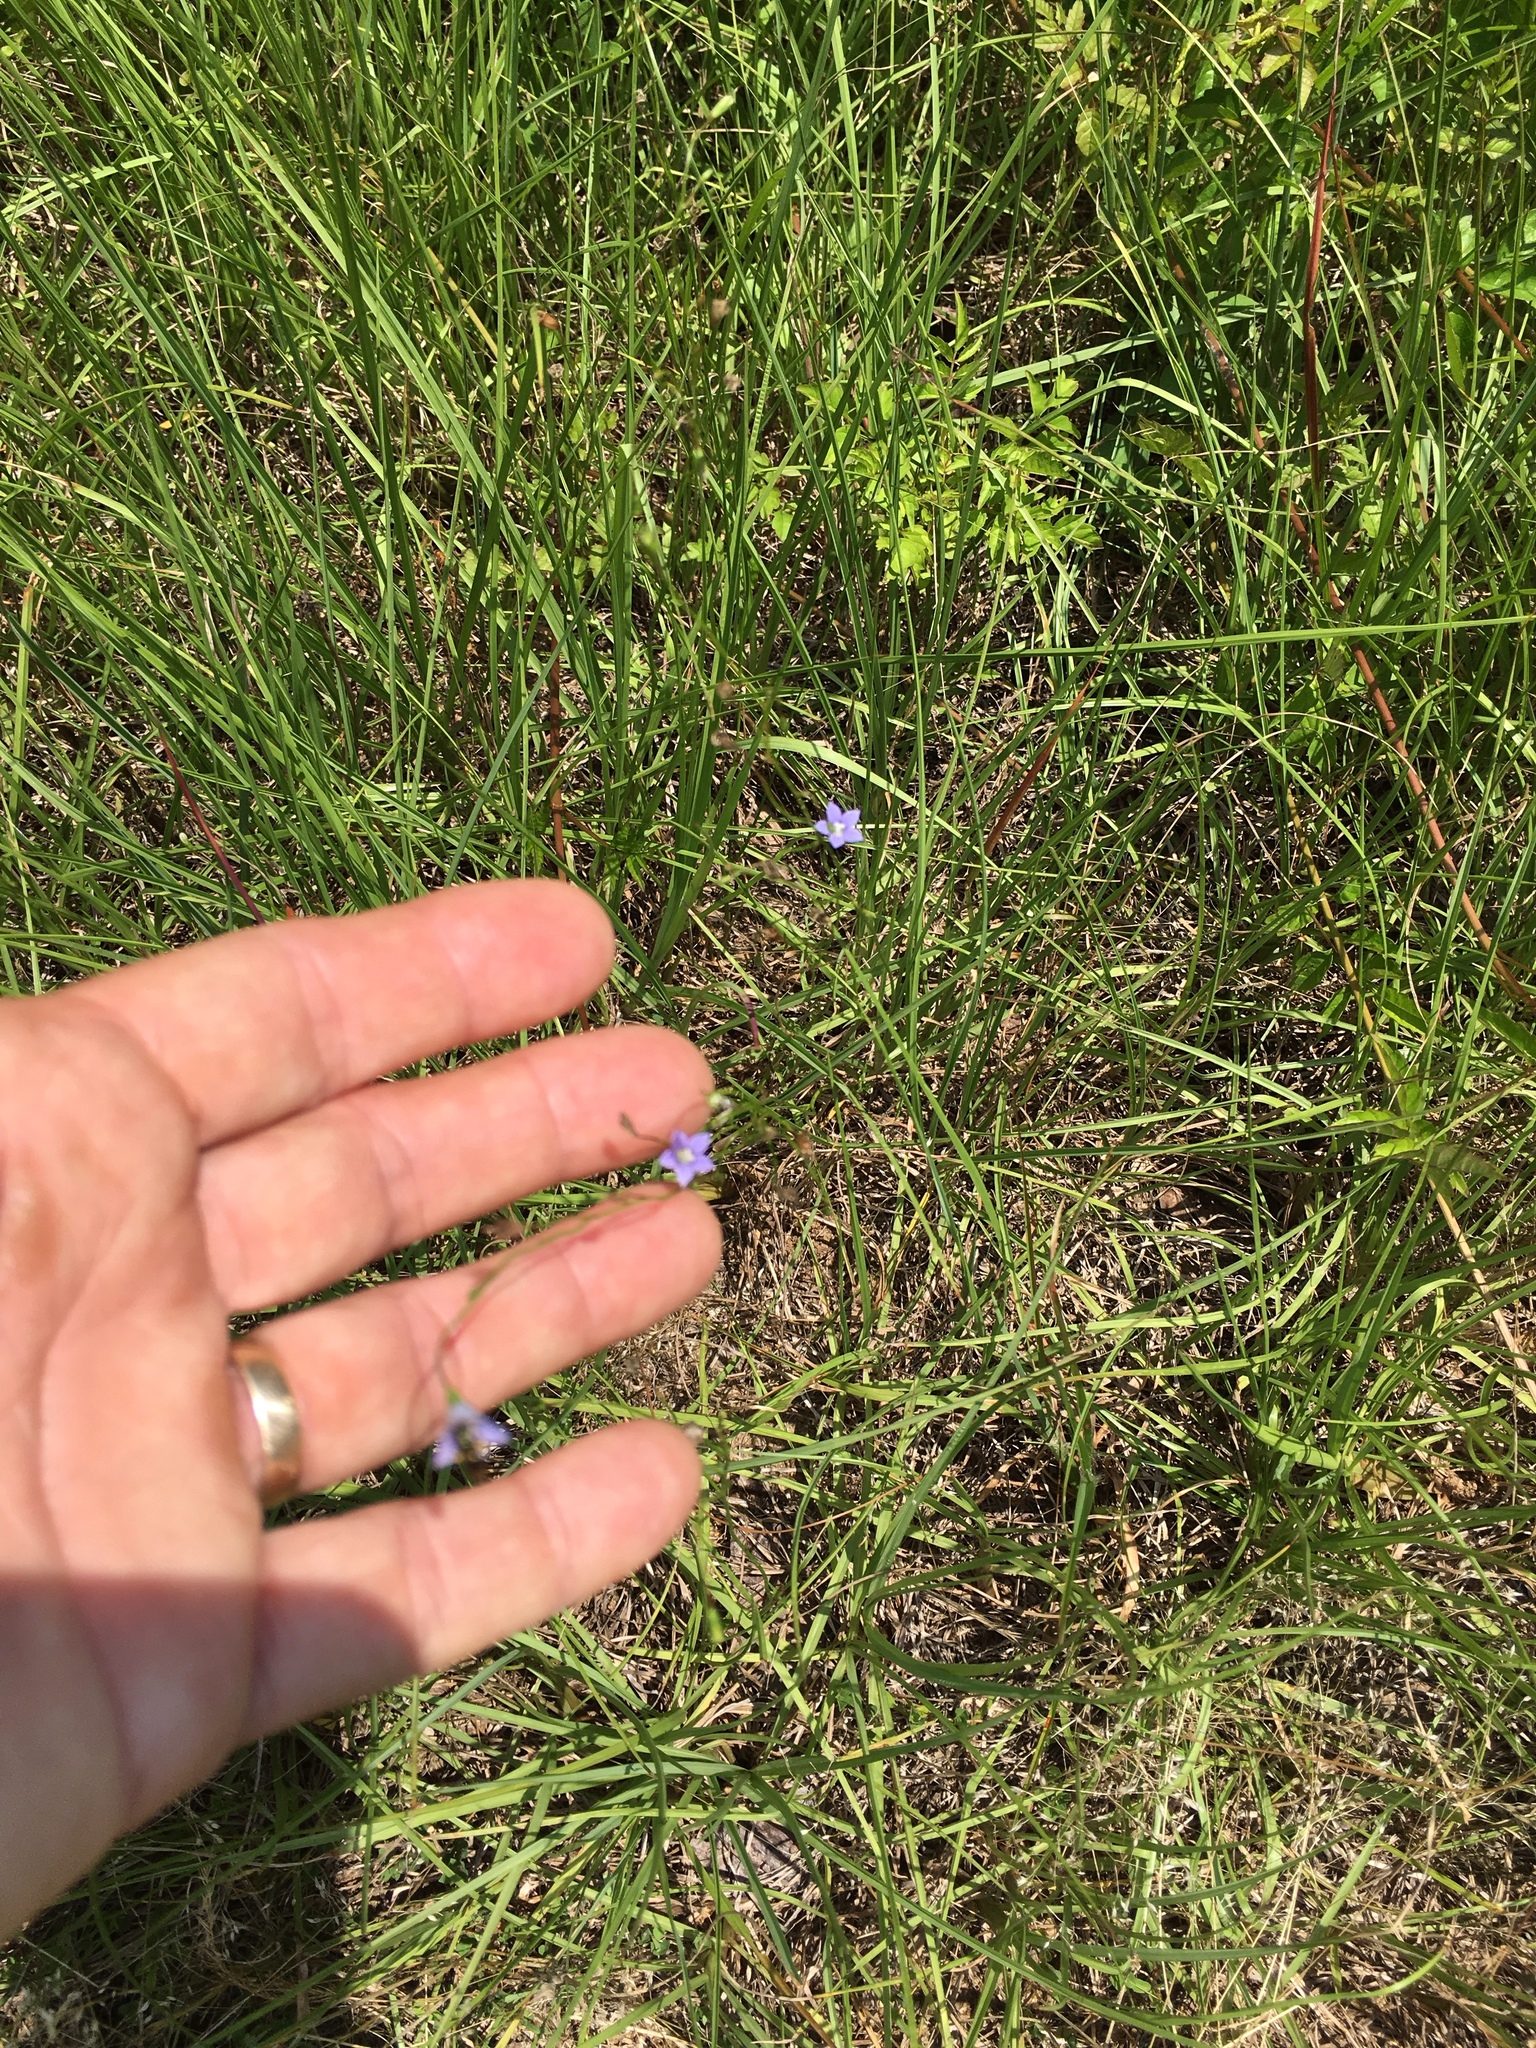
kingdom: Plantae
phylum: Tracheophyta
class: Magnoliopsida
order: Asterales
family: Campanulaceae
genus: Wahlenbergia
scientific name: Wahlenbergia marginata
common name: Southern rockbell
